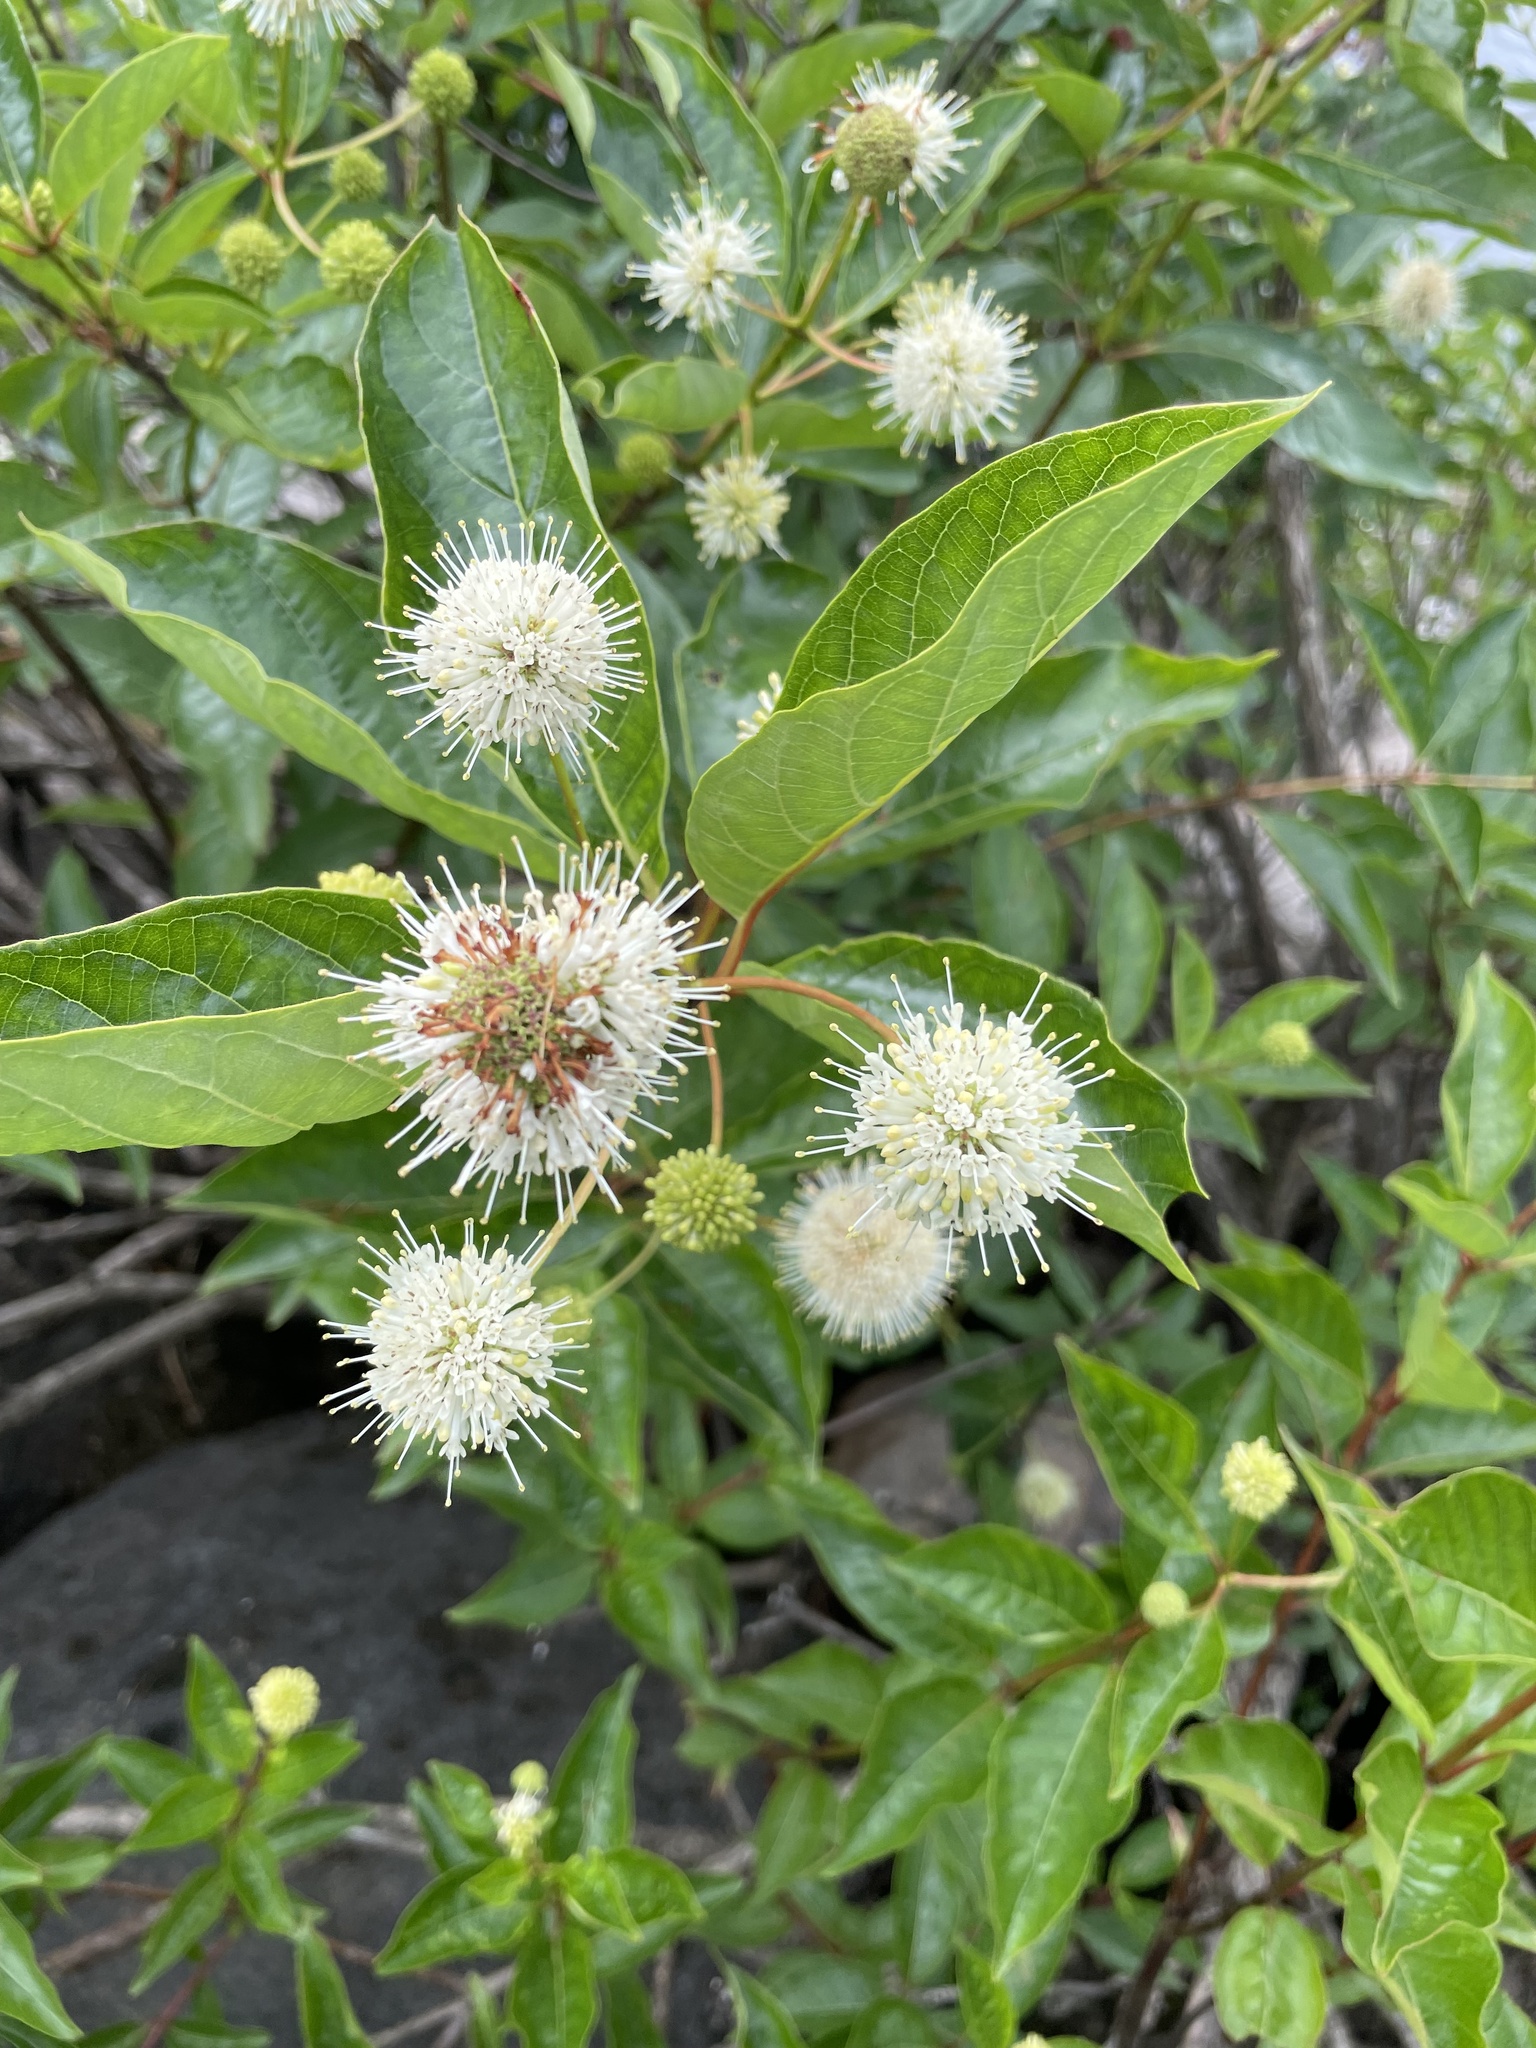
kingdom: Plantae
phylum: Tracheophyta
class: Magnoliopsida
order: Gentianales
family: Rubiaceae
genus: Cephalanthus
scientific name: Cephalanthus occidentalis
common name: Button-willow
